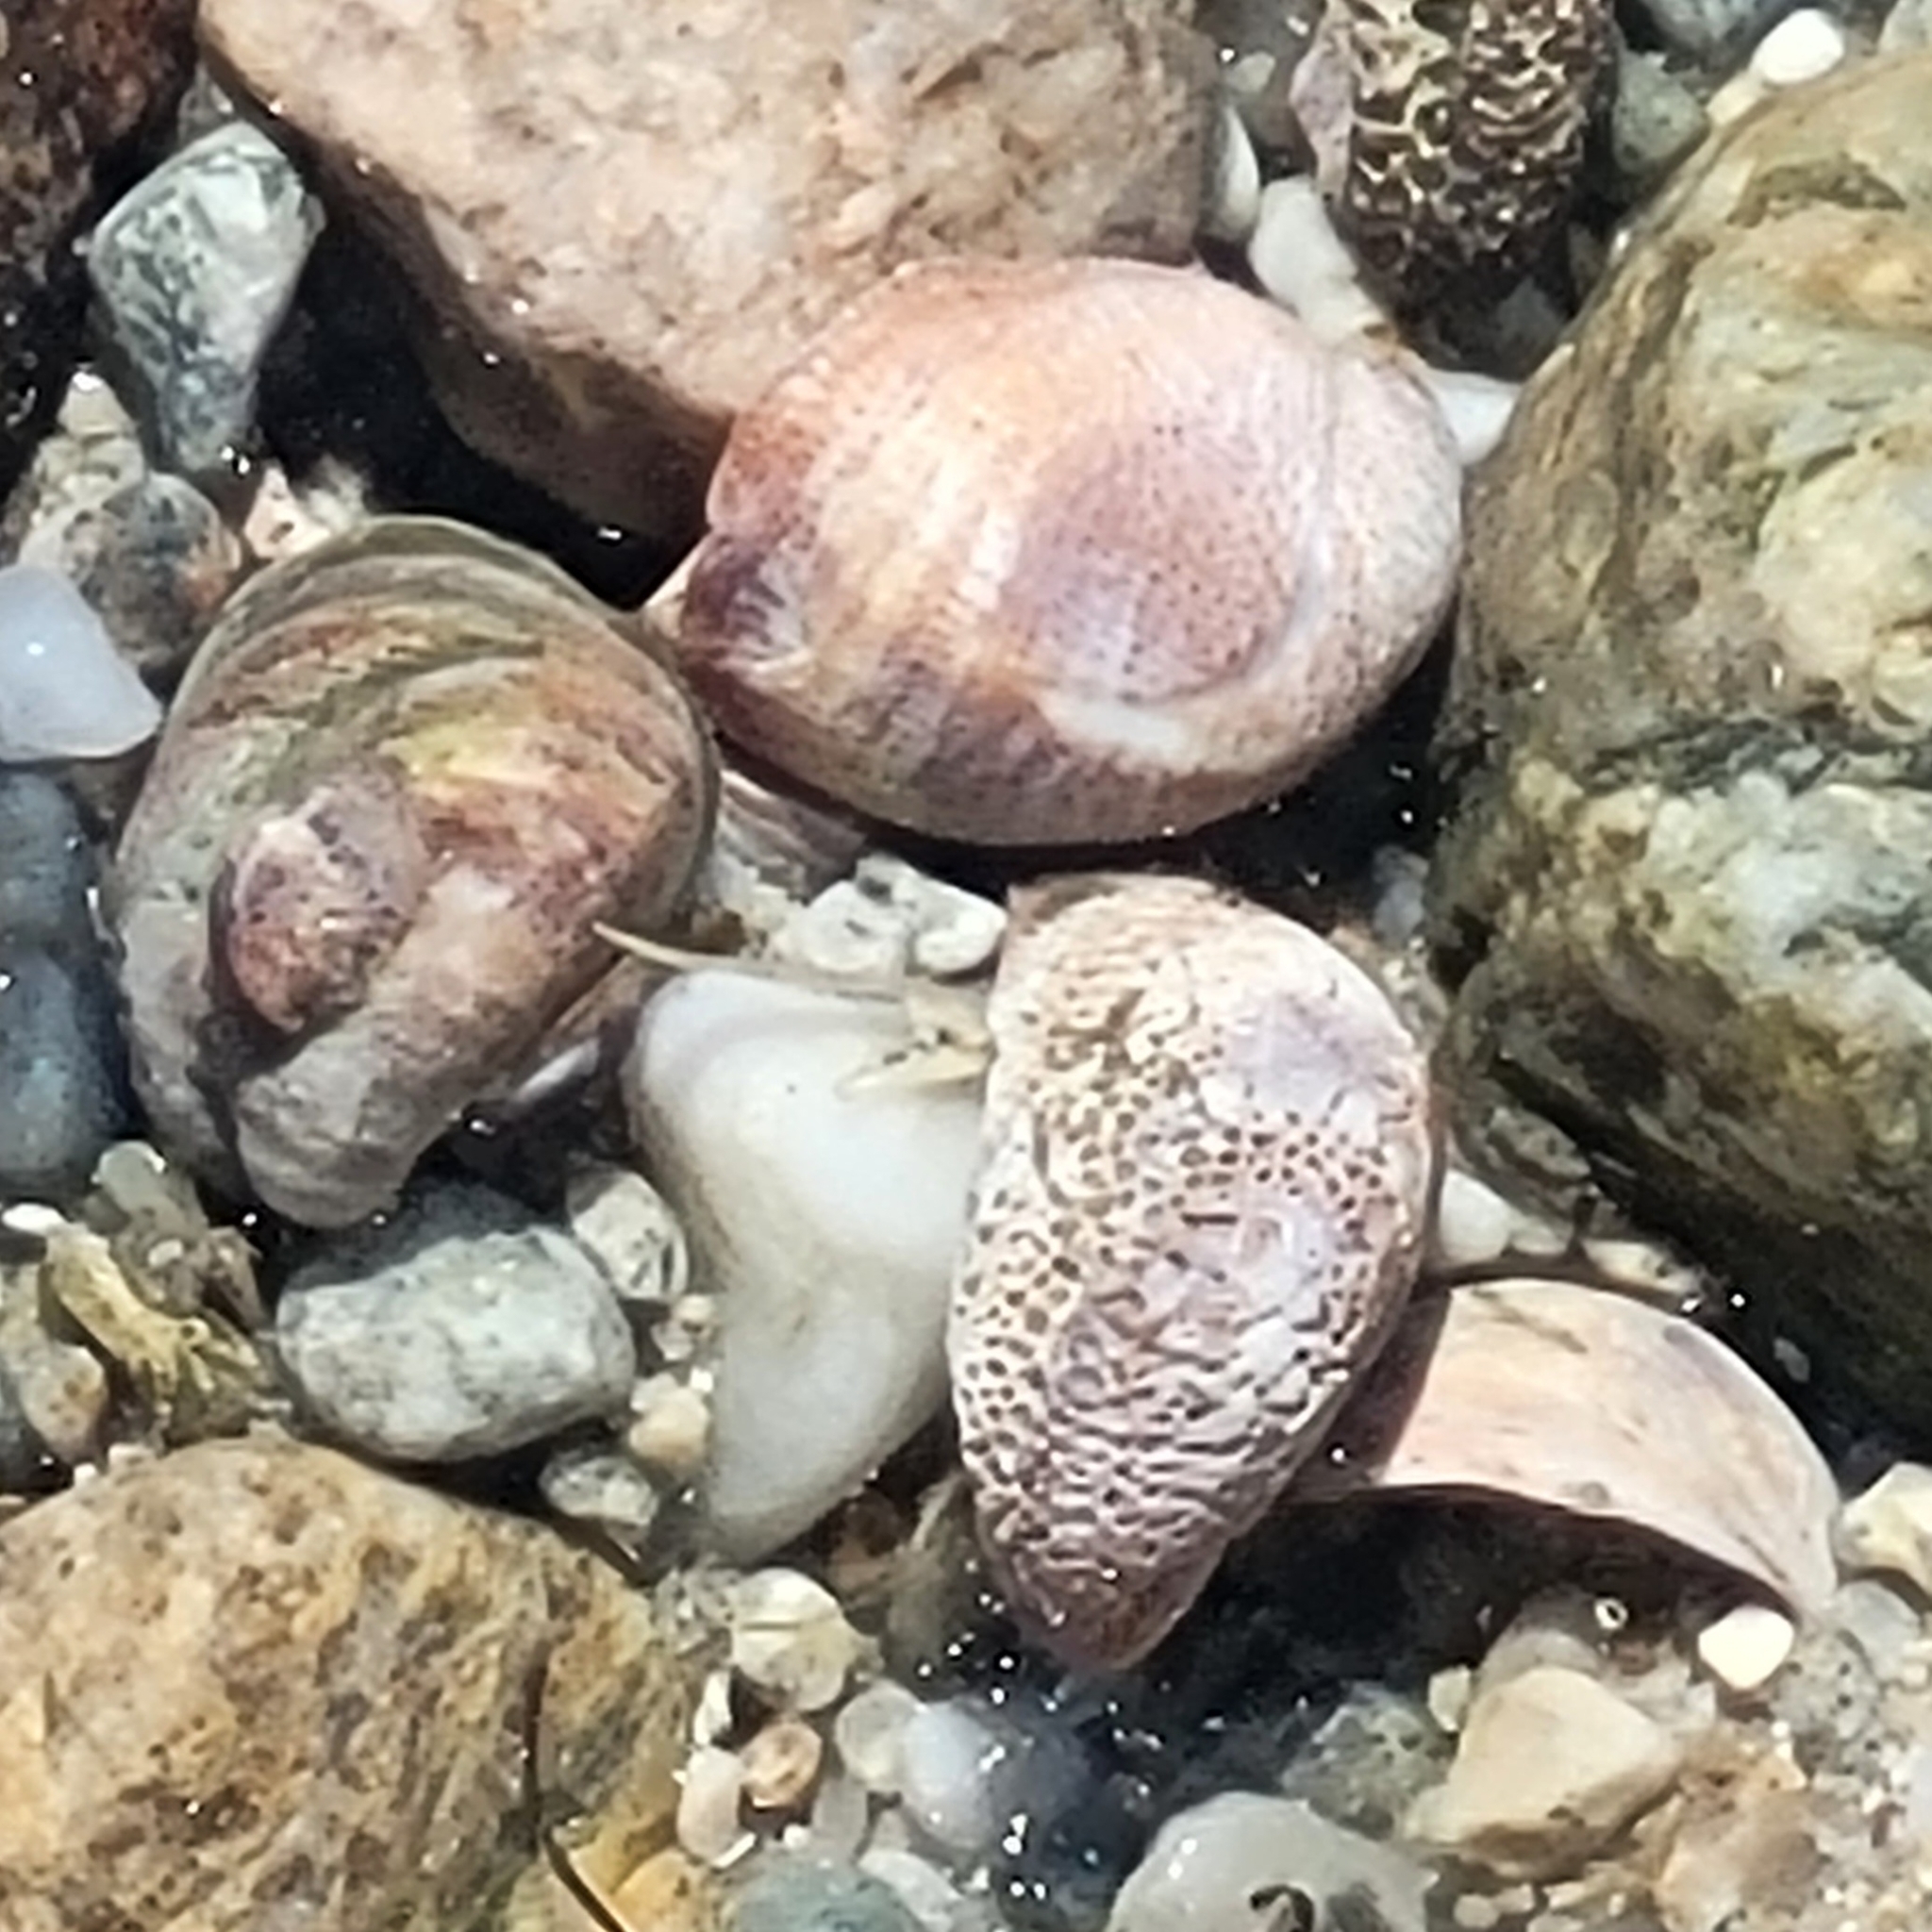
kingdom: Animalia
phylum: Mollusca
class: Gastropoda
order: Littorinimorpha
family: Calyptraeidae
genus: Crepidula
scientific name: Crepidula fornicata
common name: Slipper limpet
